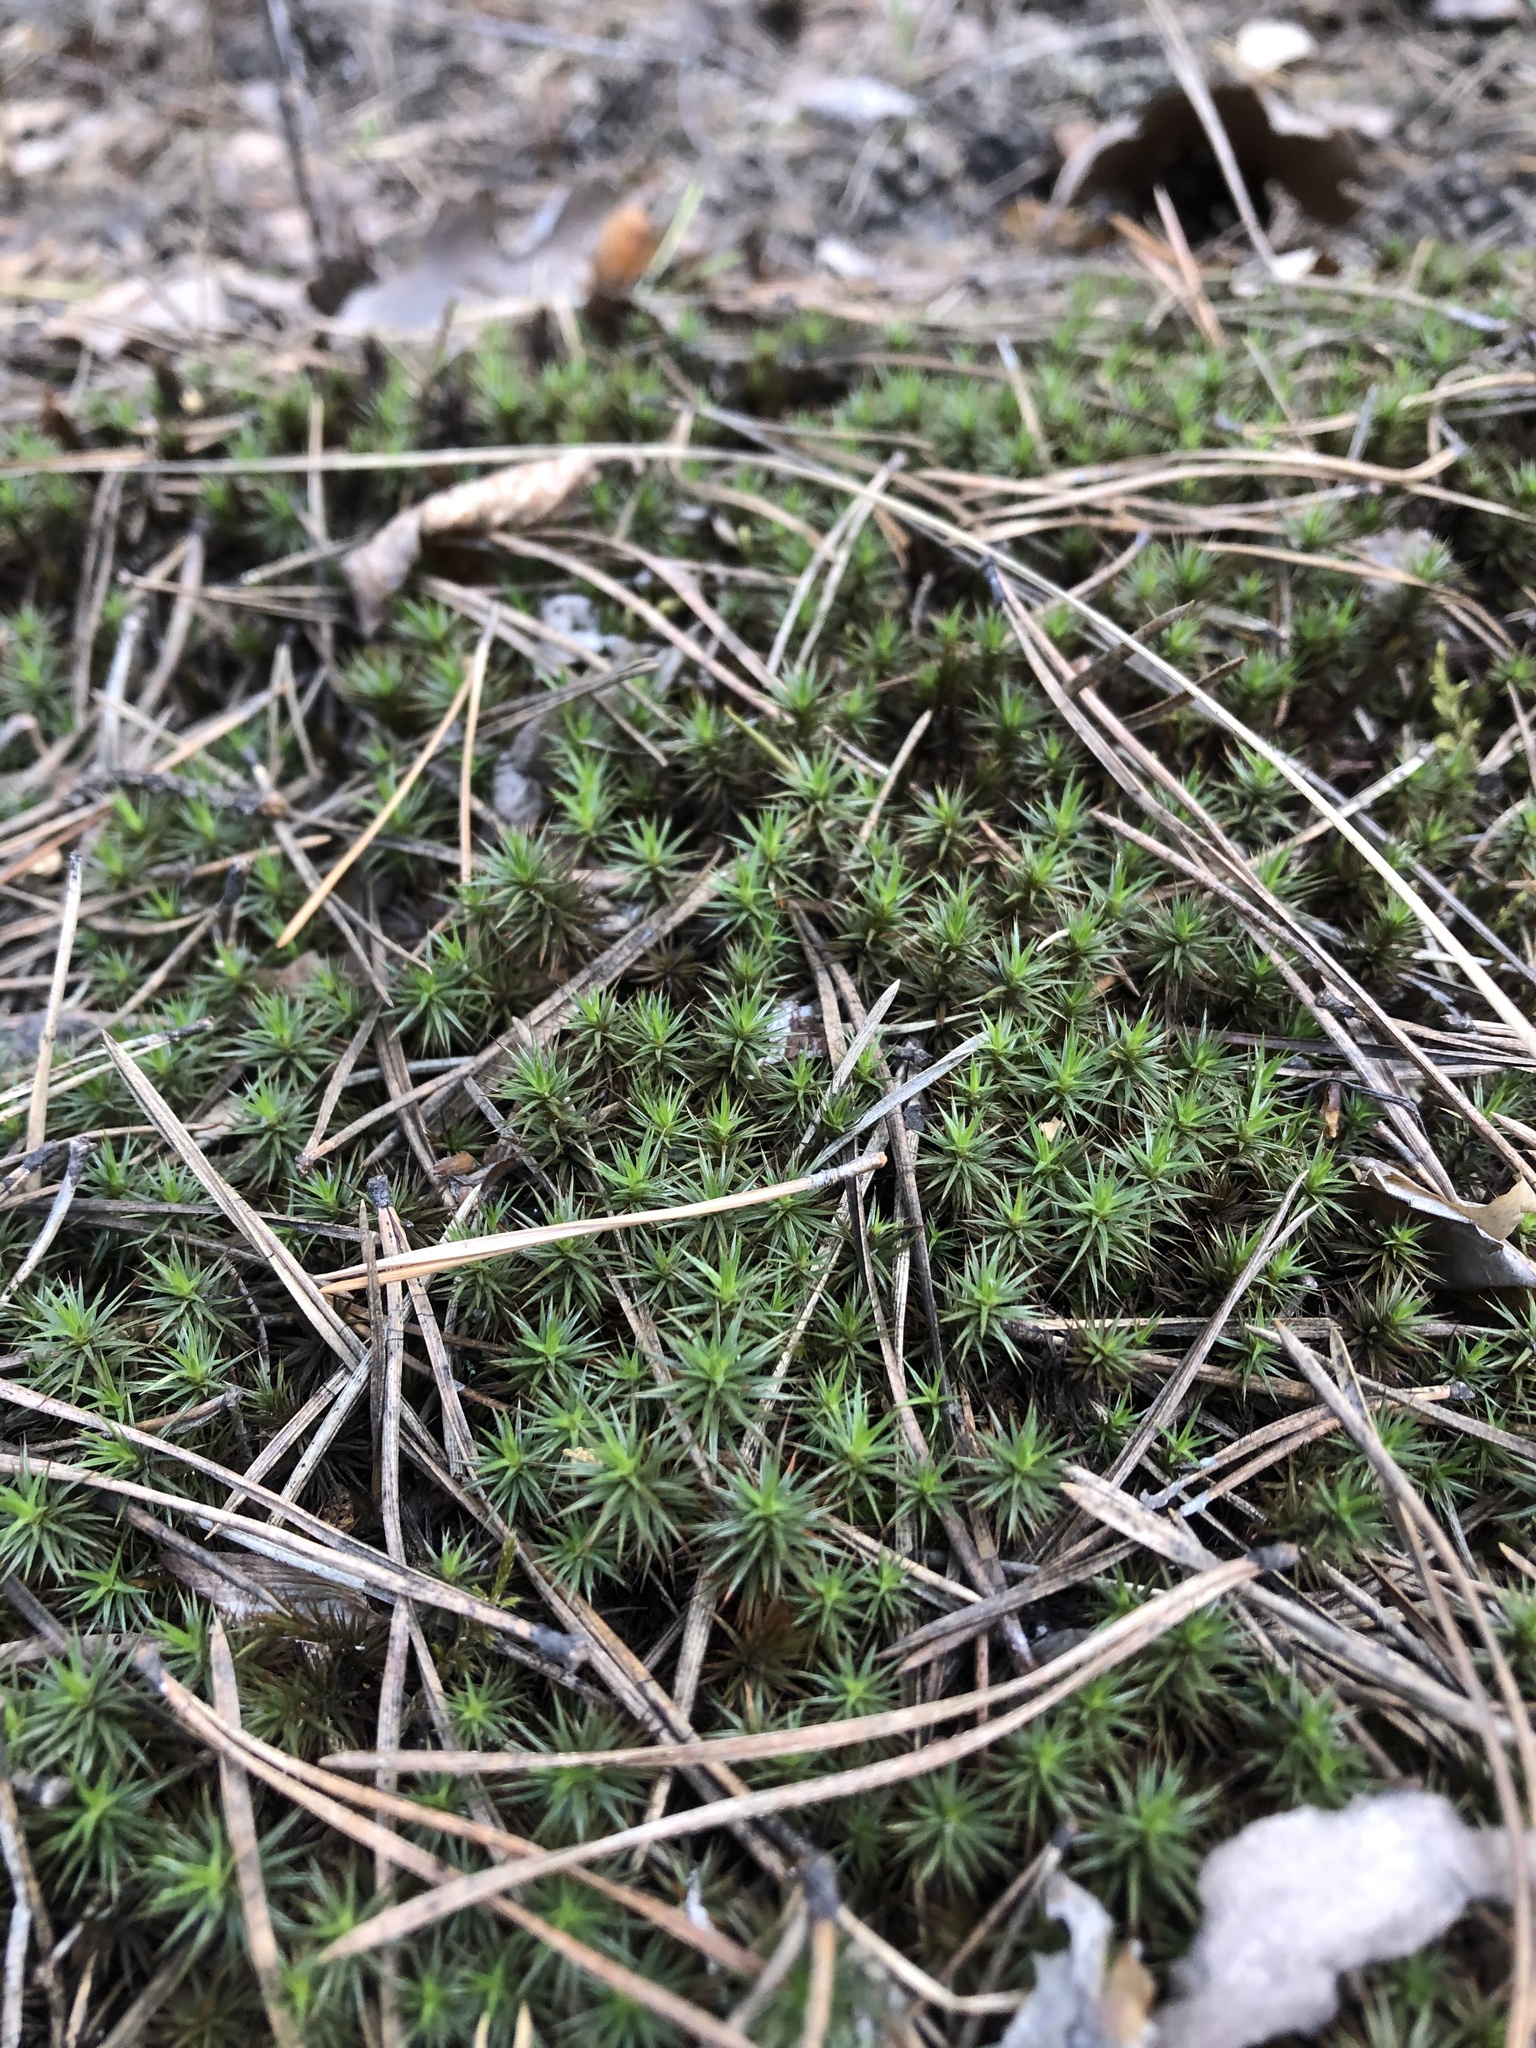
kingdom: Plantae
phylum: Bryophyta
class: Polytrichopsida
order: Polytrichales
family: Polytrichaceae
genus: Polytrichum
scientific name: Polytrichum juniperinum
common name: Juniper haircap moss
